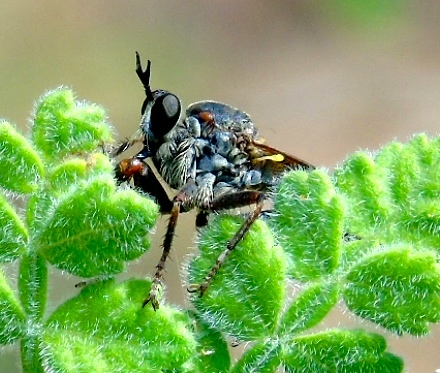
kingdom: Animalia
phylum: Arthropoda
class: Insecta
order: Diptera
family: Asilidae
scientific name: Asilidae
